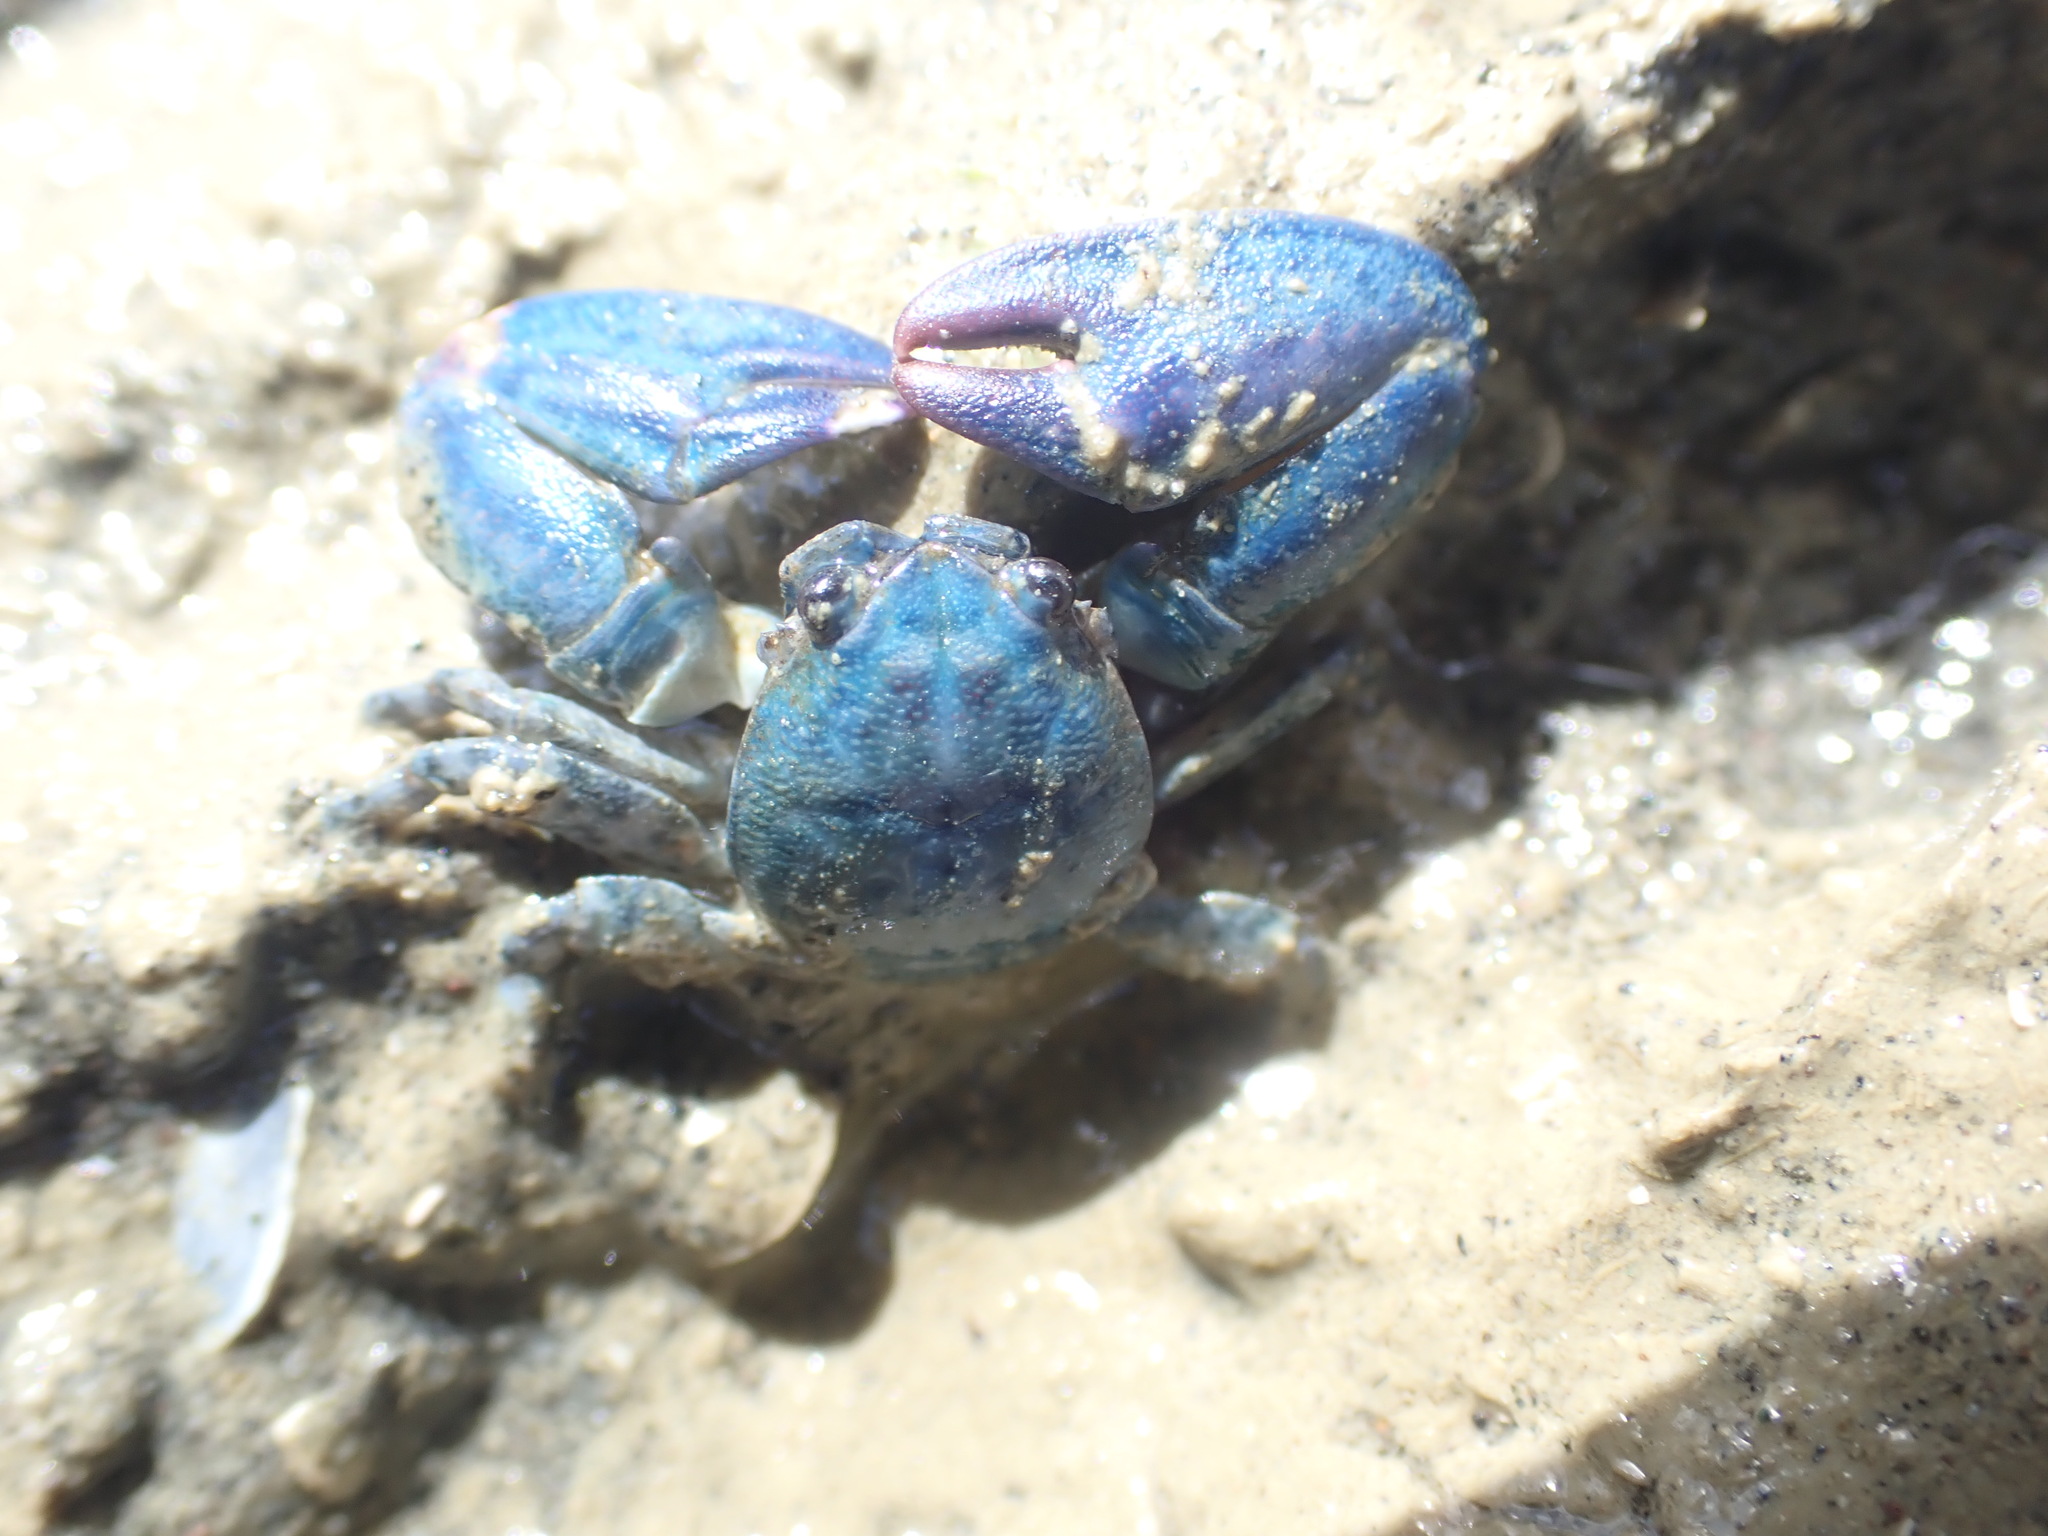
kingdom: Animalia
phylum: Arthropoda
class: Malacostraca
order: Decapoda
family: Porcellanidae
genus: Petrolisthes
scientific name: Petrolisthes elongatus
